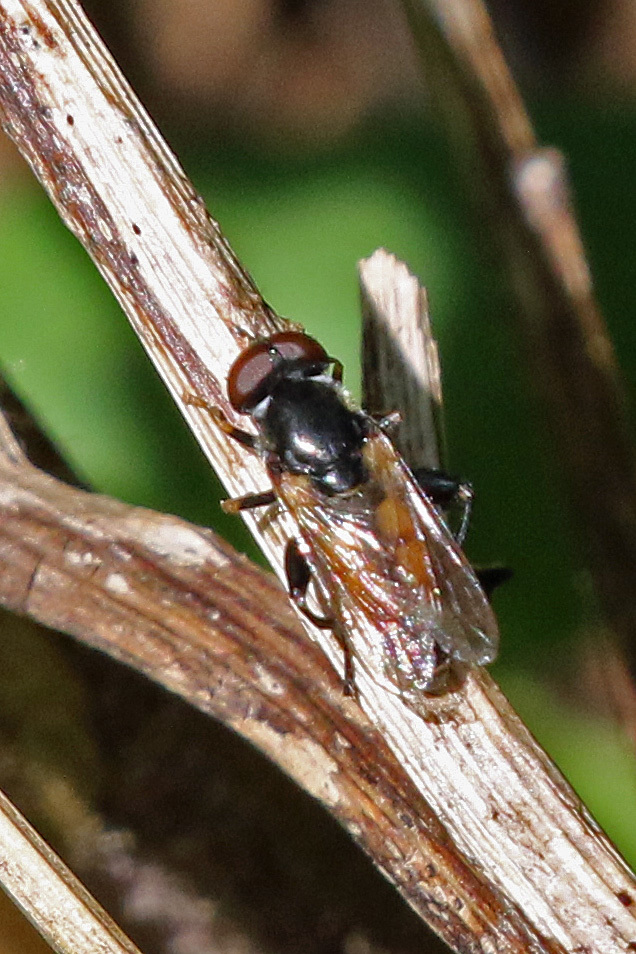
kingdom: Animalia
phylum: Arthropoda
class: Insecta
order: Diptera
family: Syrphidae
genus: Tropidia
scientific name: Tropidia scita
